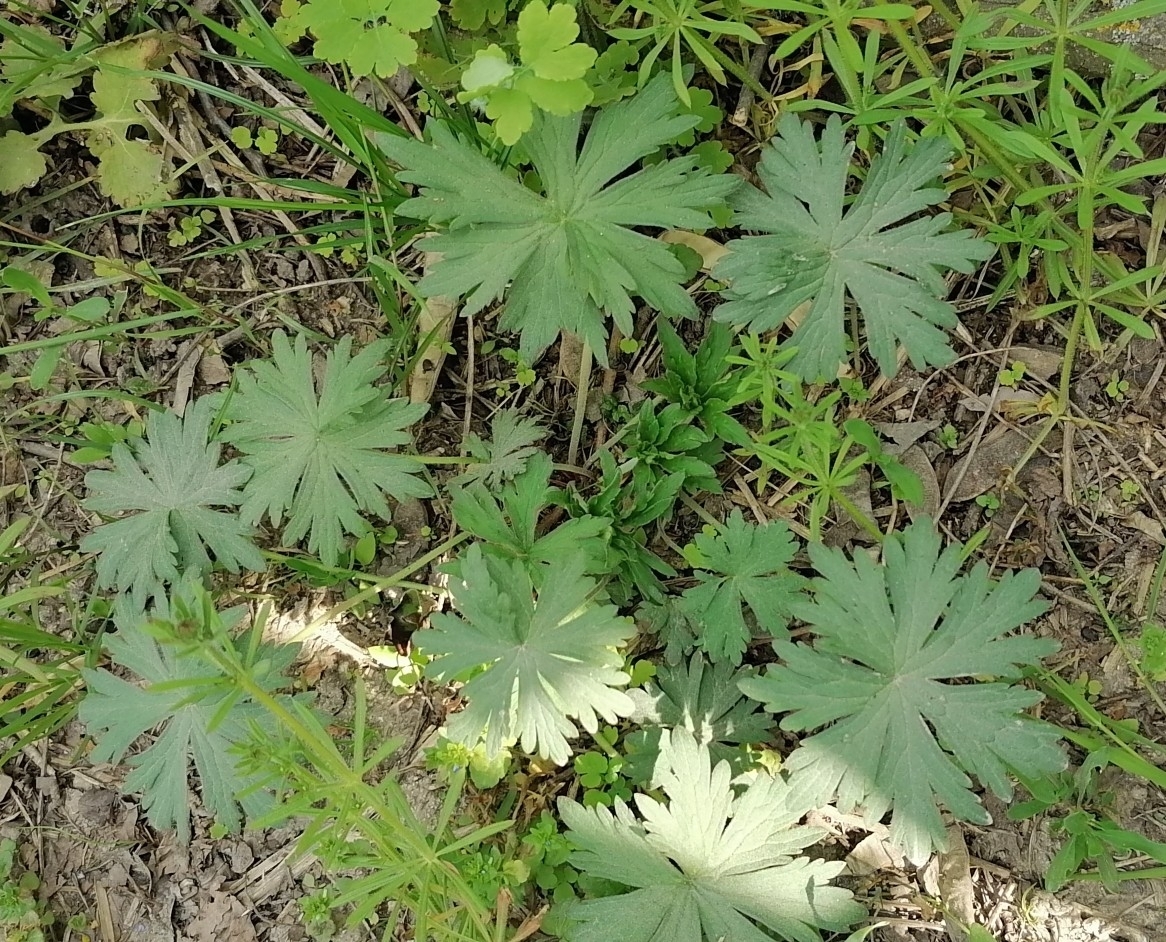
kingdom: Plantae
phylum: Tracheophyta
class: Magnoliopsida
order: Geraniales
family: Geraniaceae
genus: Geranium
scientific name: Geranium pratense
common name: Meadow crane's-bill
